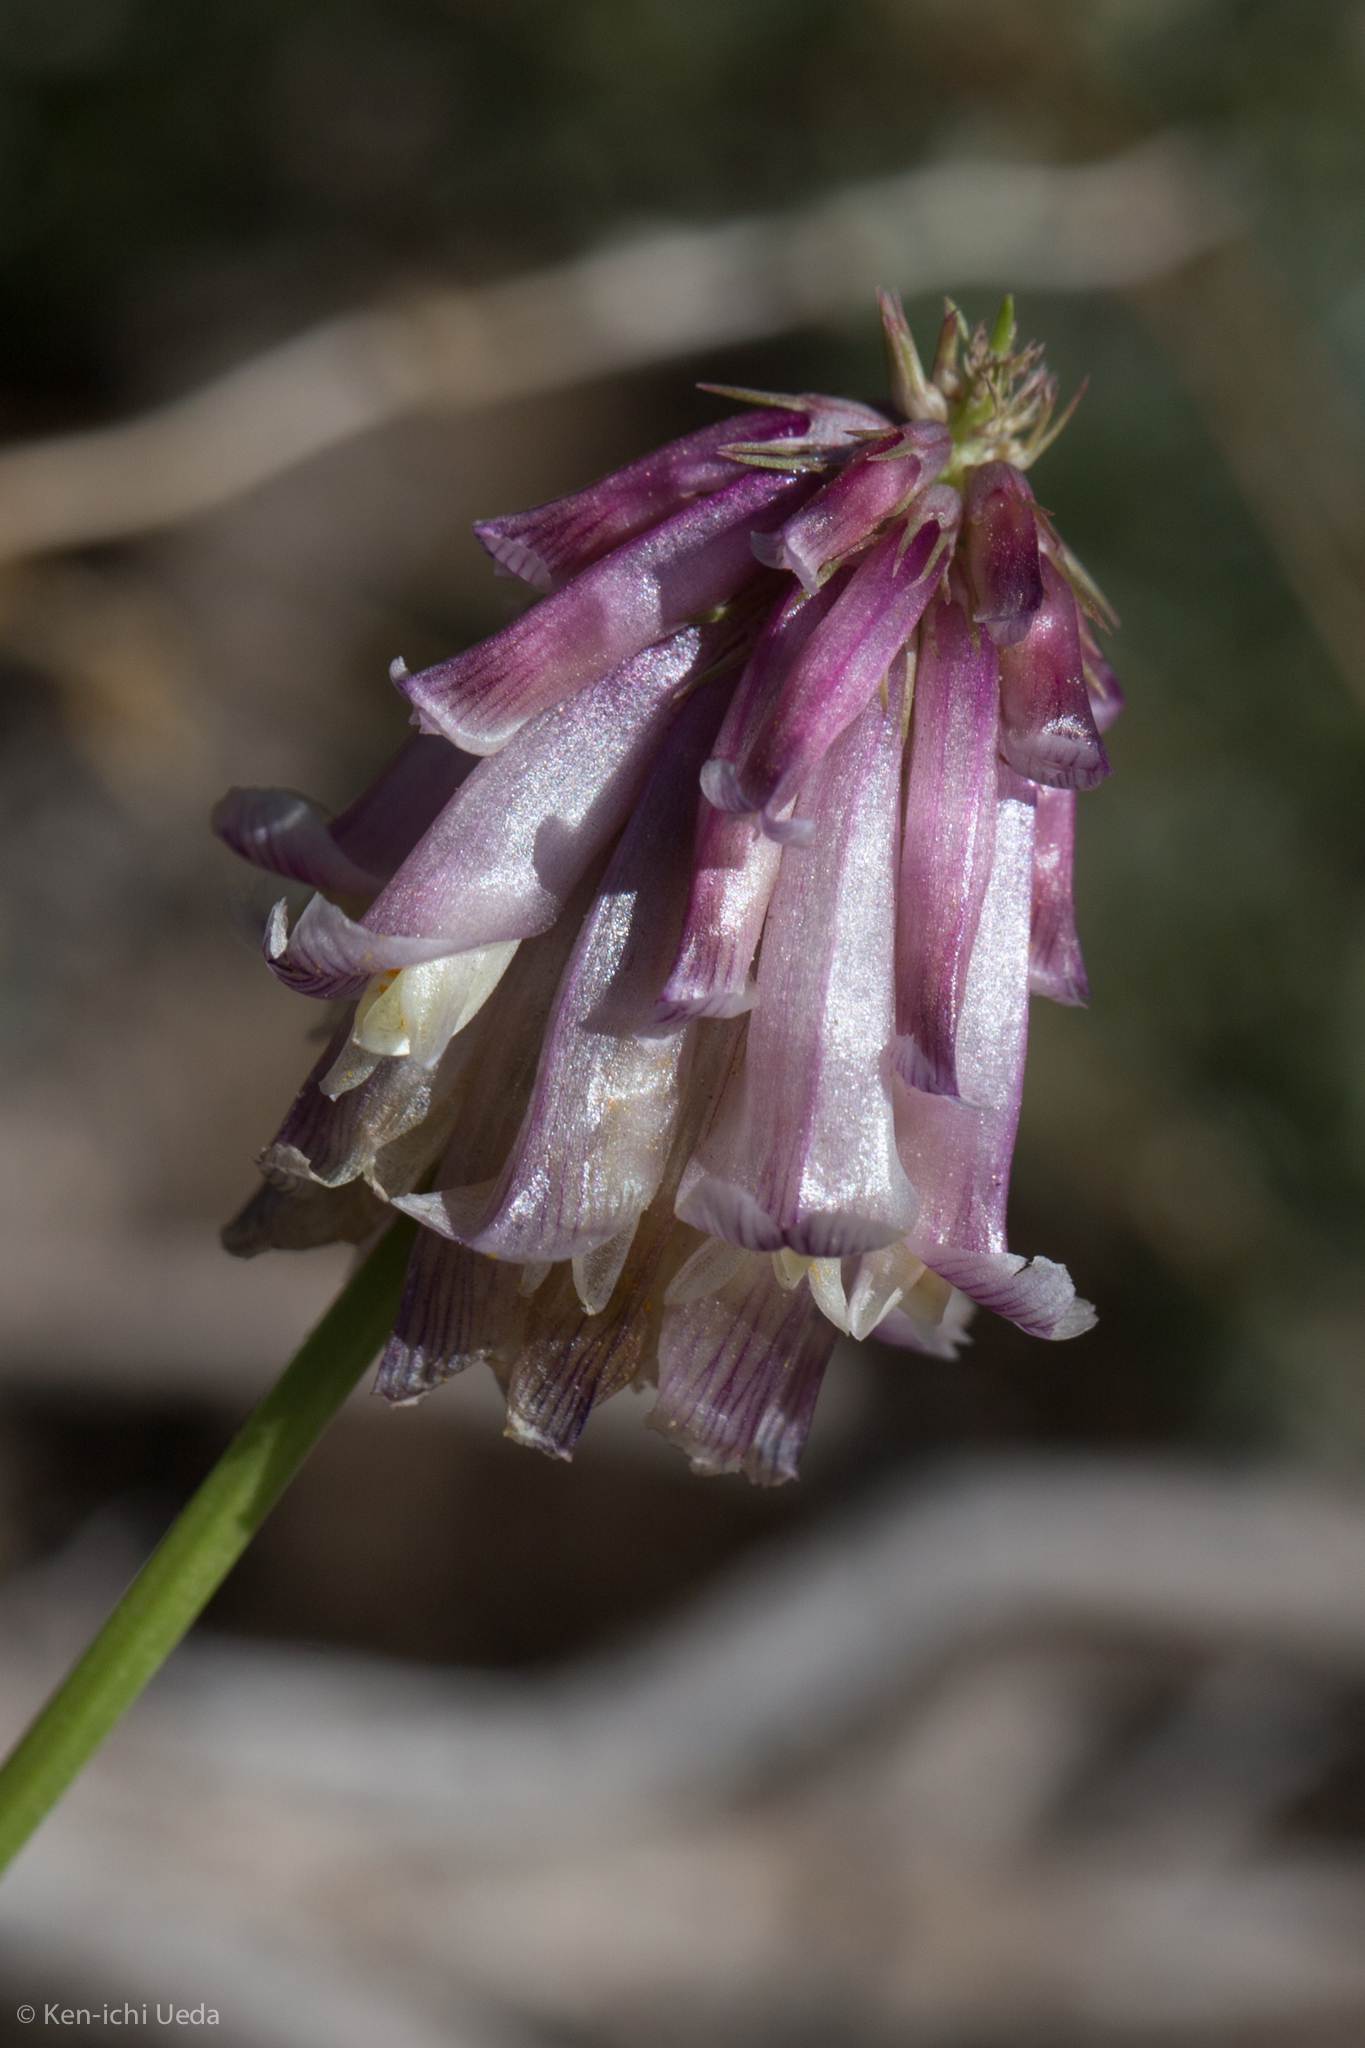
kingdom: Plantae
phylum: Tracheophyta
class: Magnoliopsida
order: Fabales
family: Fabaceae
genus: Trifolium
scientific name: Trifolium productum
